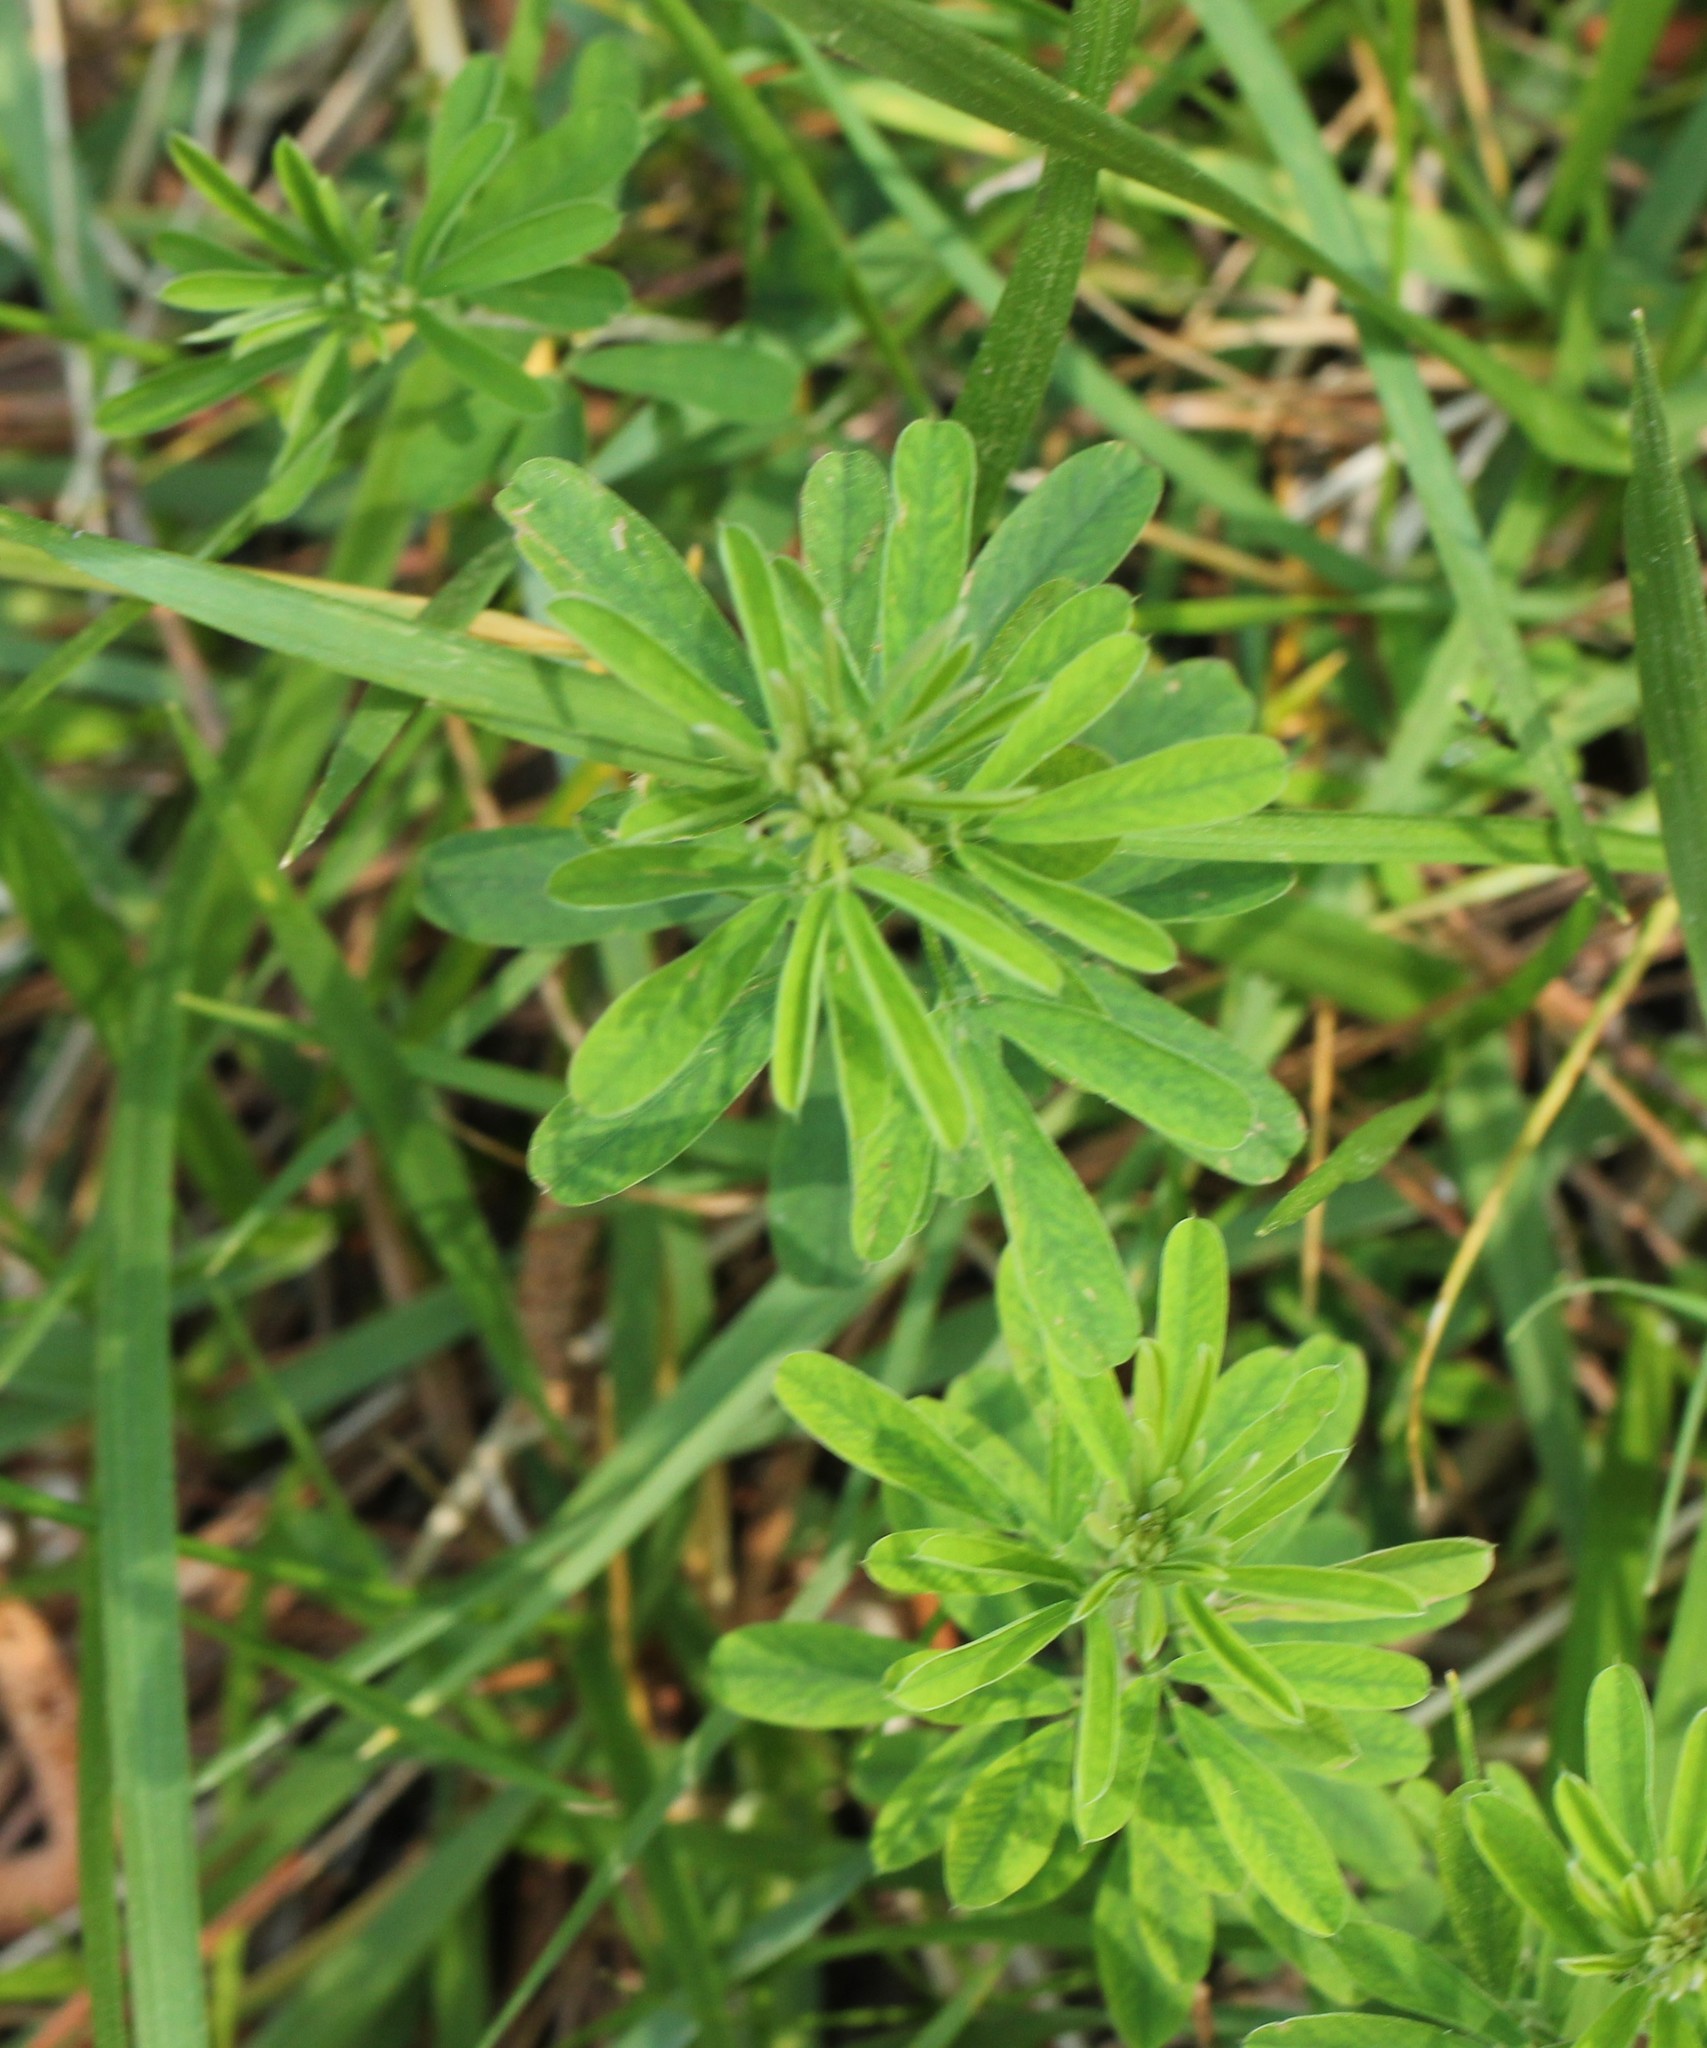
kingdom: Plantae
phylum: Tracheophyta
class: Magnoliopsida
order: Fabales
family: Fabaceae
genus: Lespedeza
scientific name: Lespedeza cuneata
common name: Chinese bush-clover
